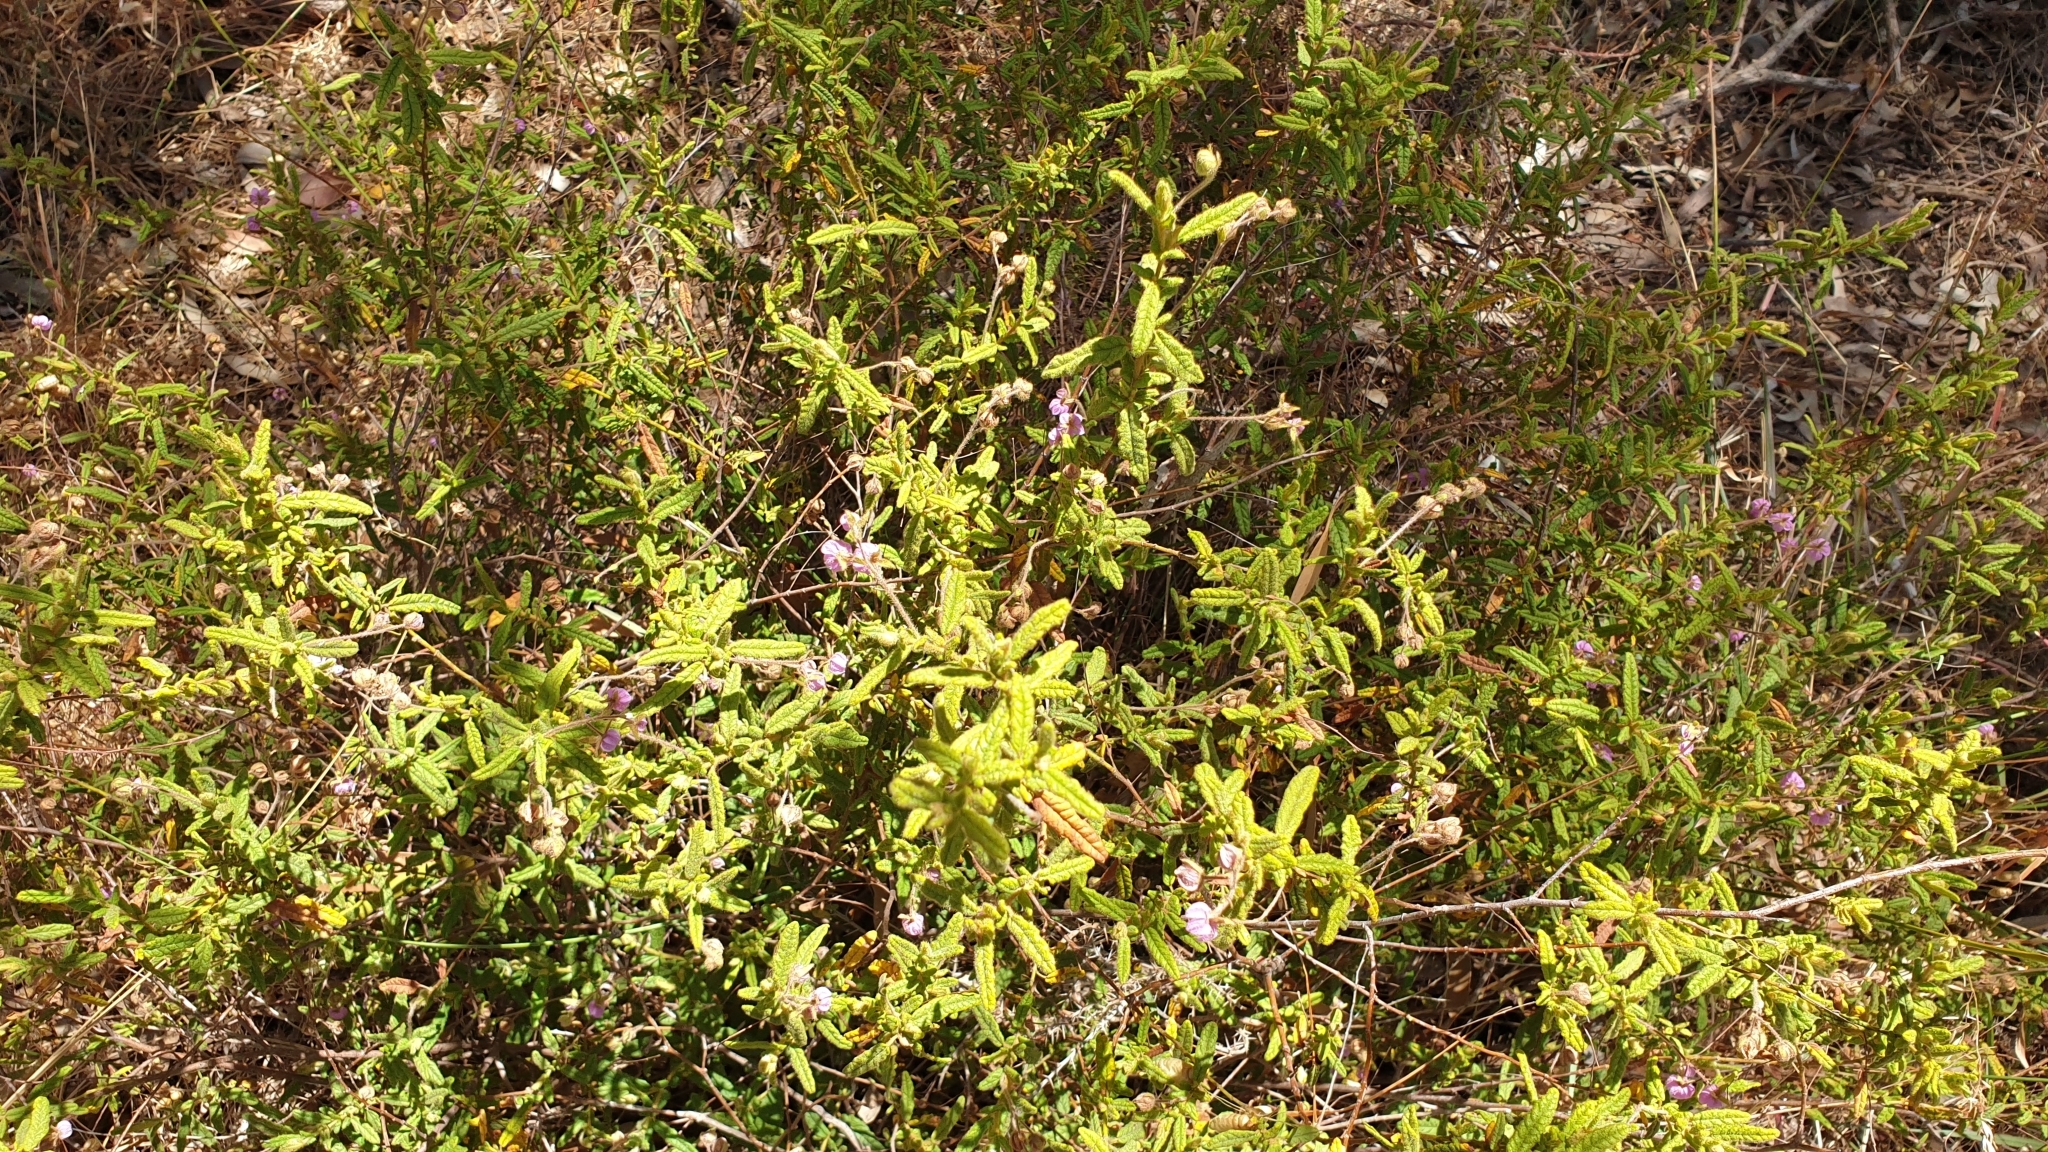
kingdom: Plantae
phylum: Tracheophyta
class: Magnoliopsida
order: Malvales
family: Malvaceae
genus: Thomasia
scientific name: Thomasia petalocalyx
